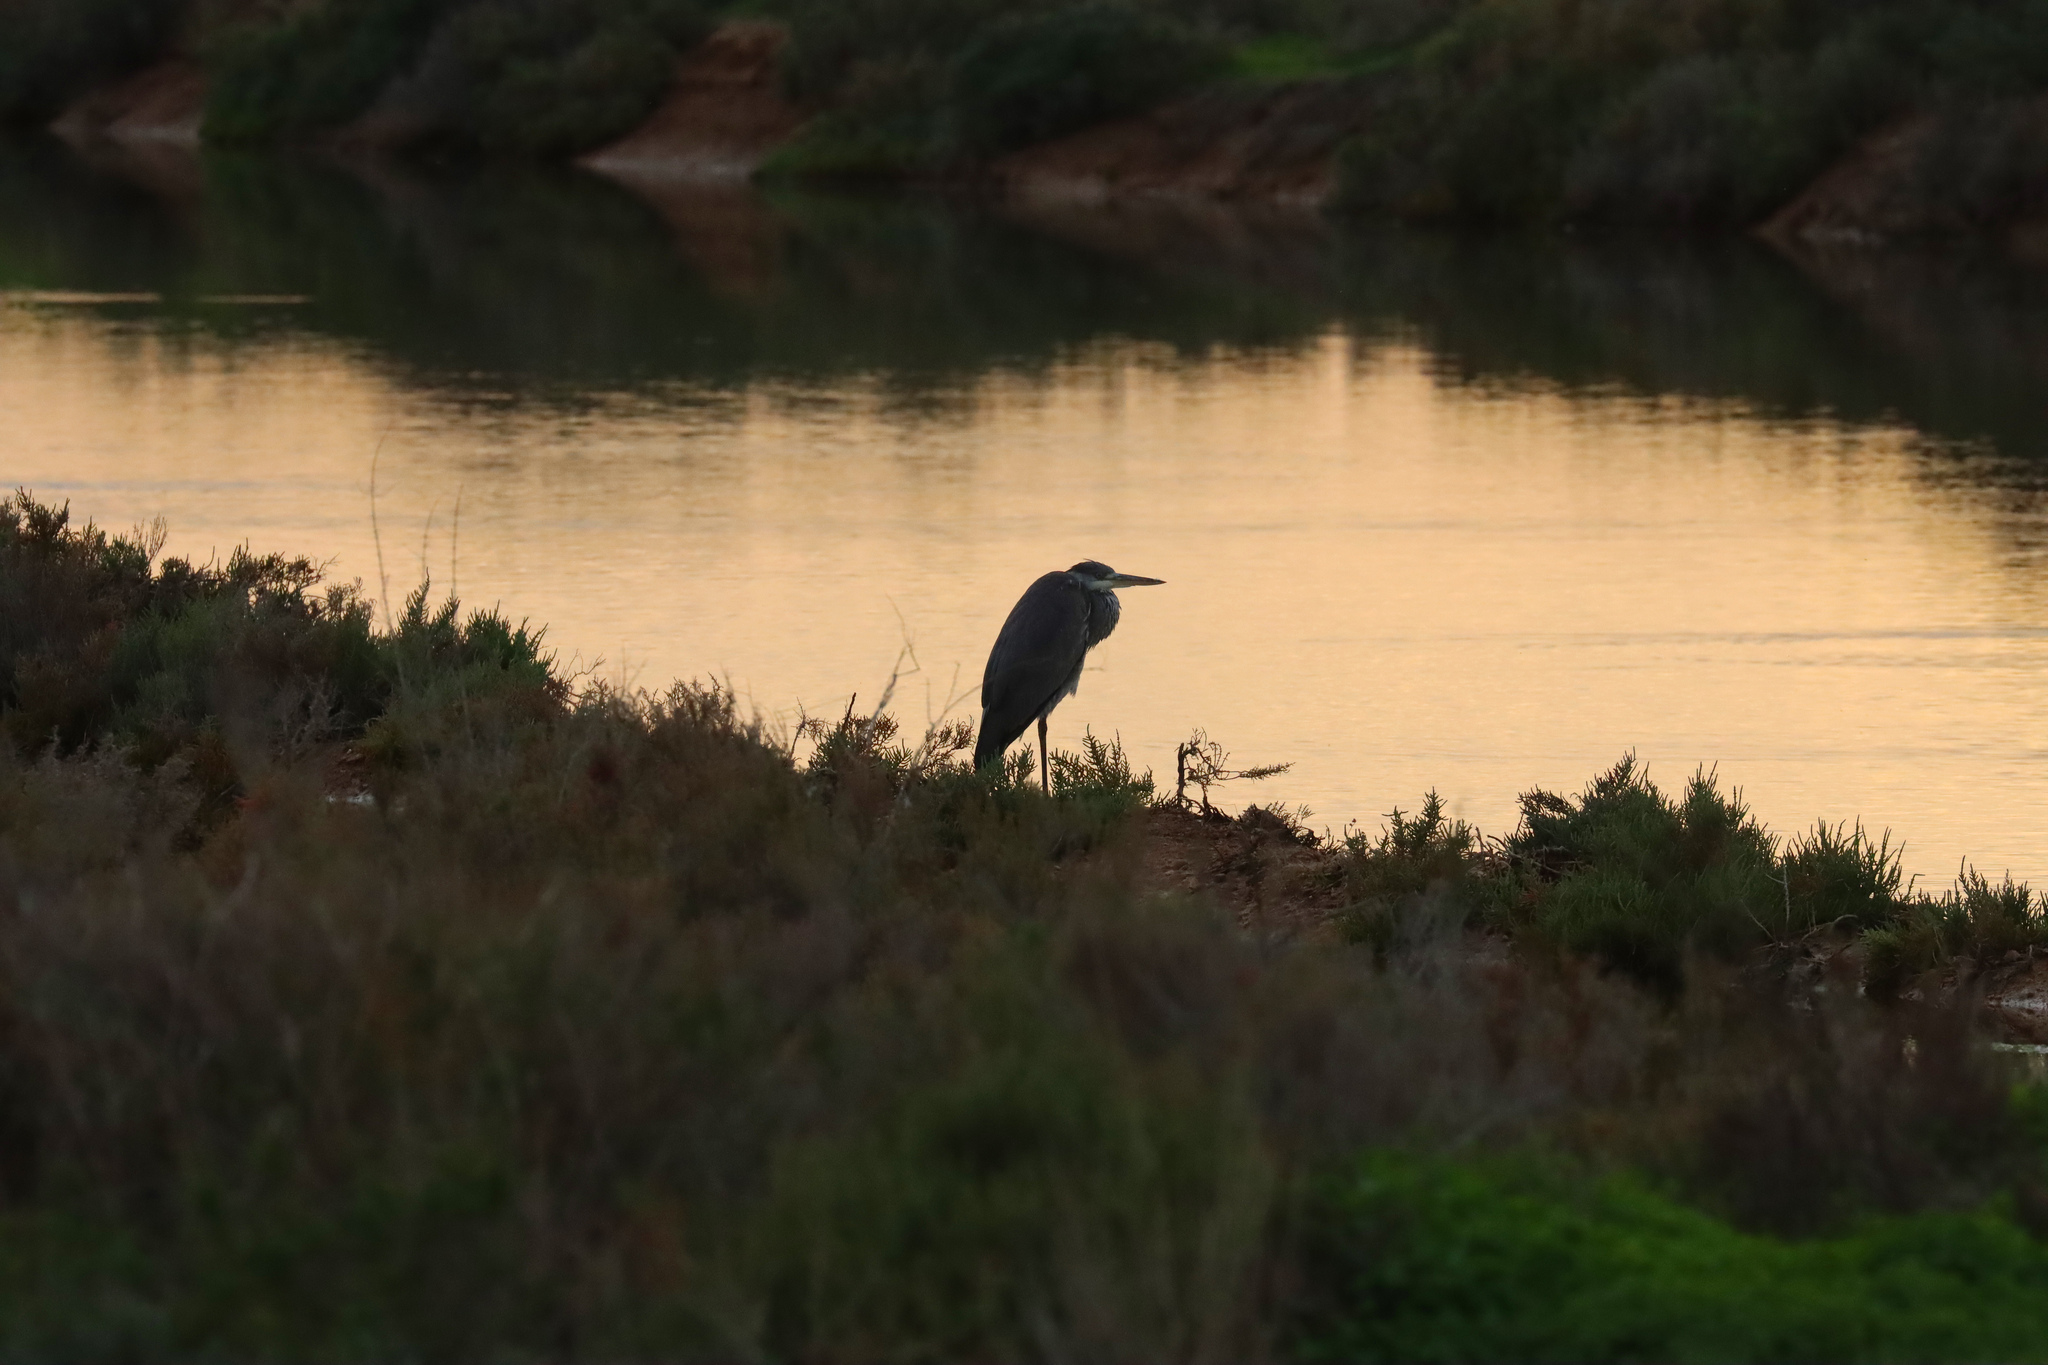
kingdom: Animalia
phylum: Chordata
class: Aves
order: Pelecaniformes
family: Ardeidae
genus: Ardea
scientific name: Ardea cinerea
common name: Grey heron
